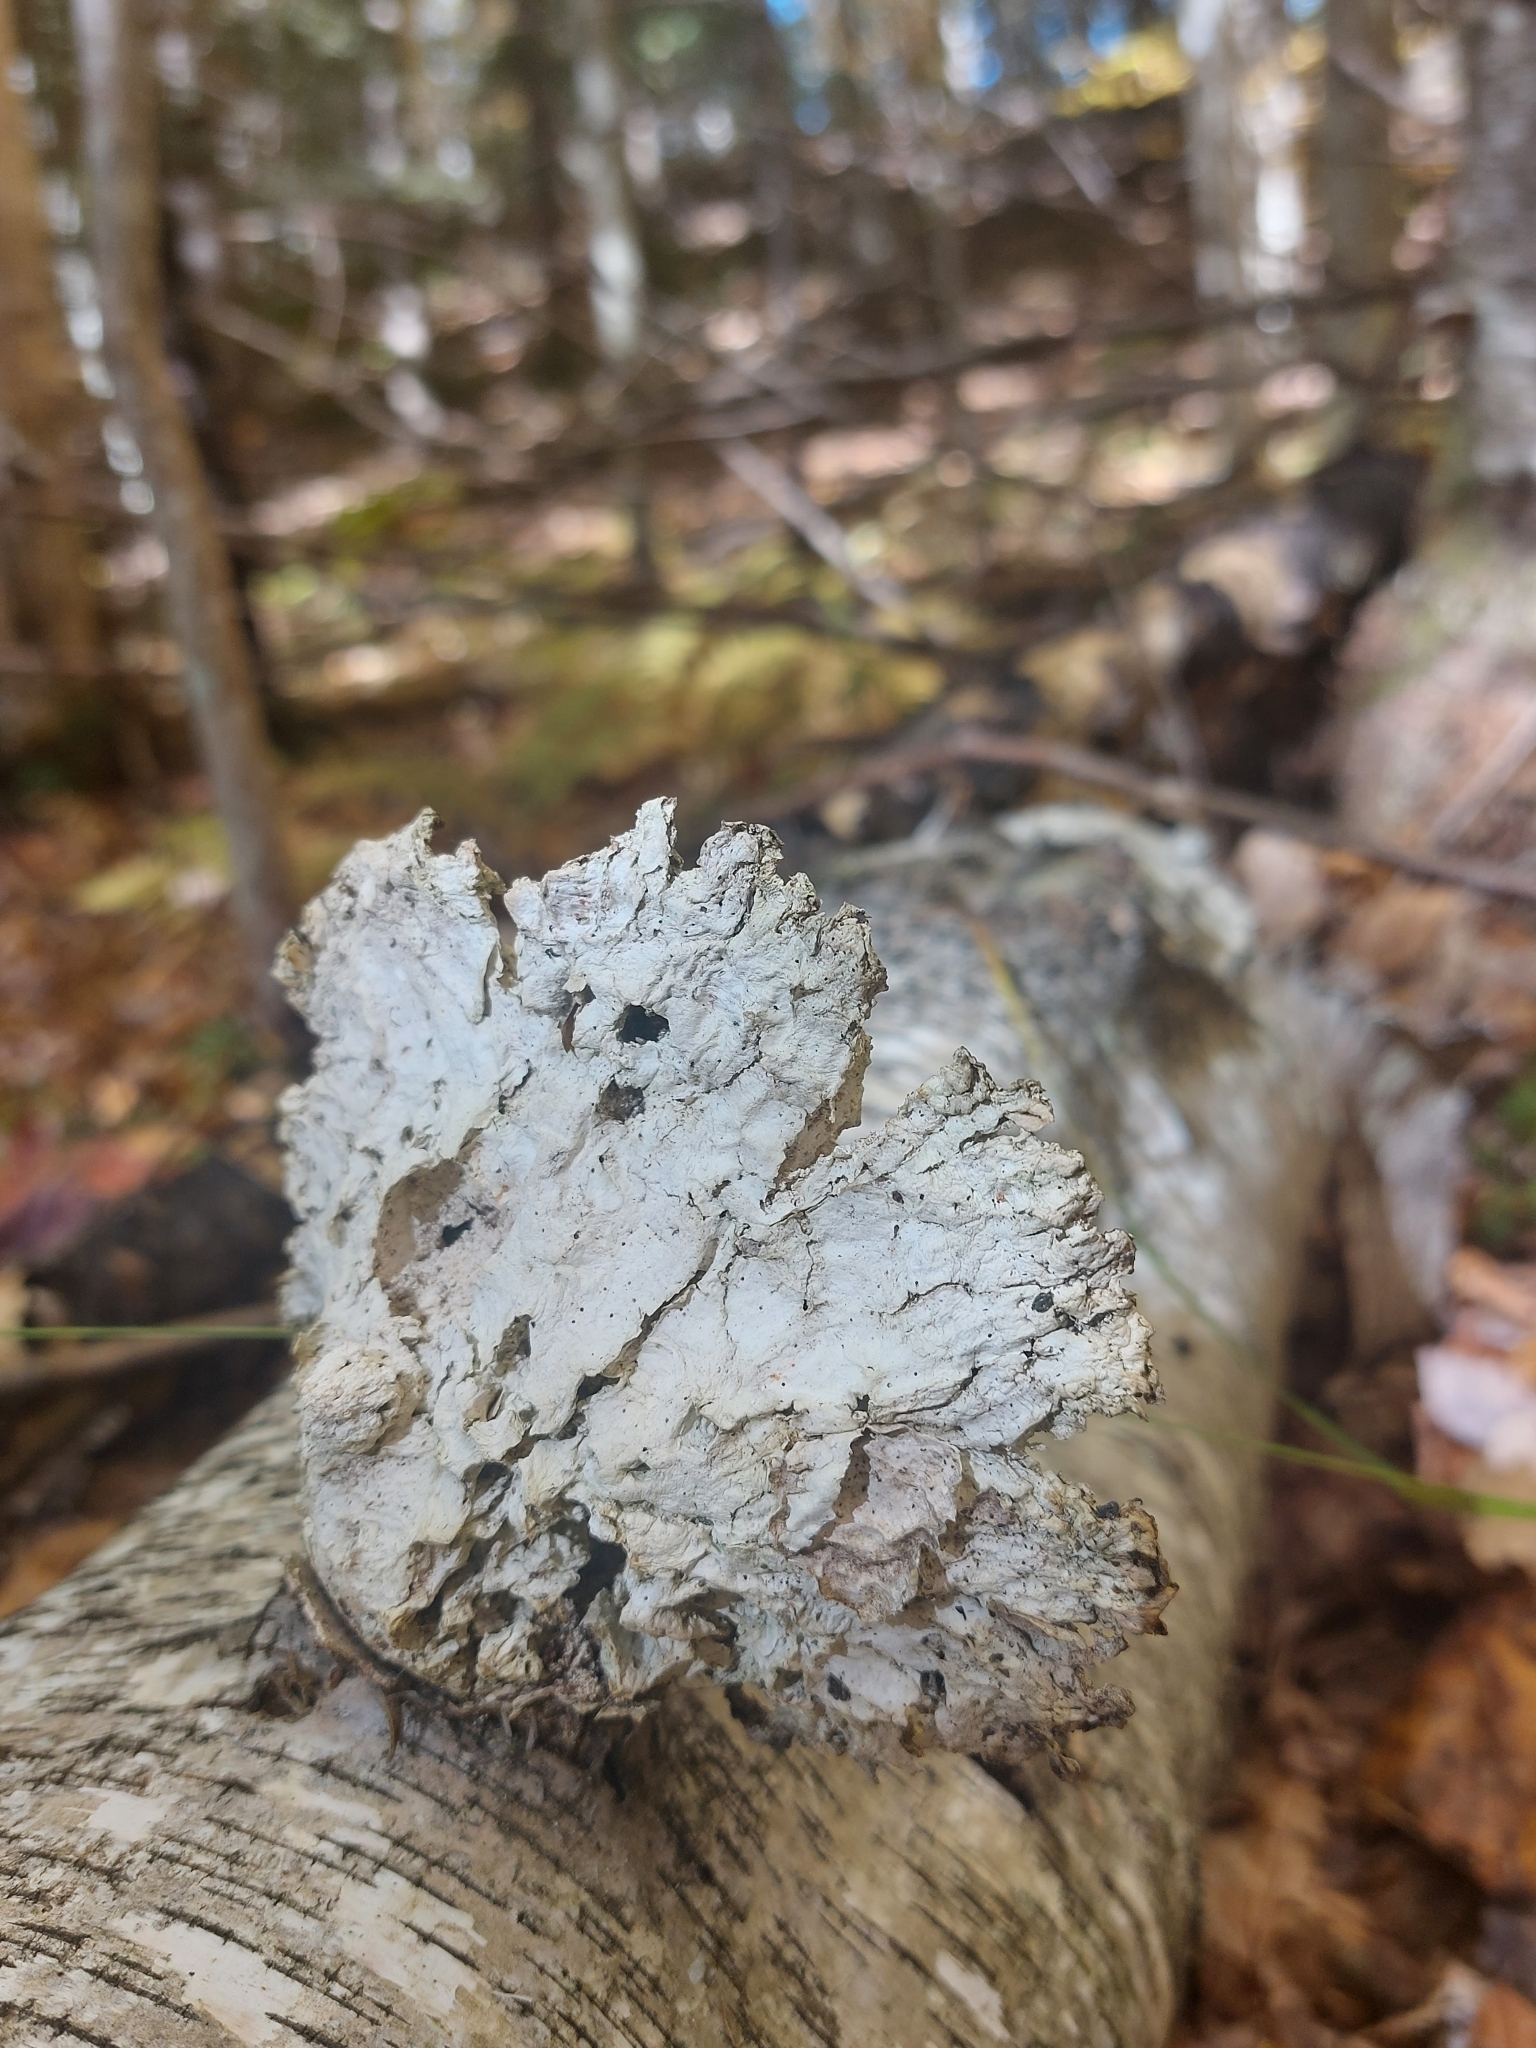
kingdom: Fungi
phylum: Basidiomycota
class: Agaricomycetes
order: Polyporales
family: Fomitopsidaceae
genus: Fomitopsis
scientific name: Fomitopsis betulina
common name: Birch polypore
